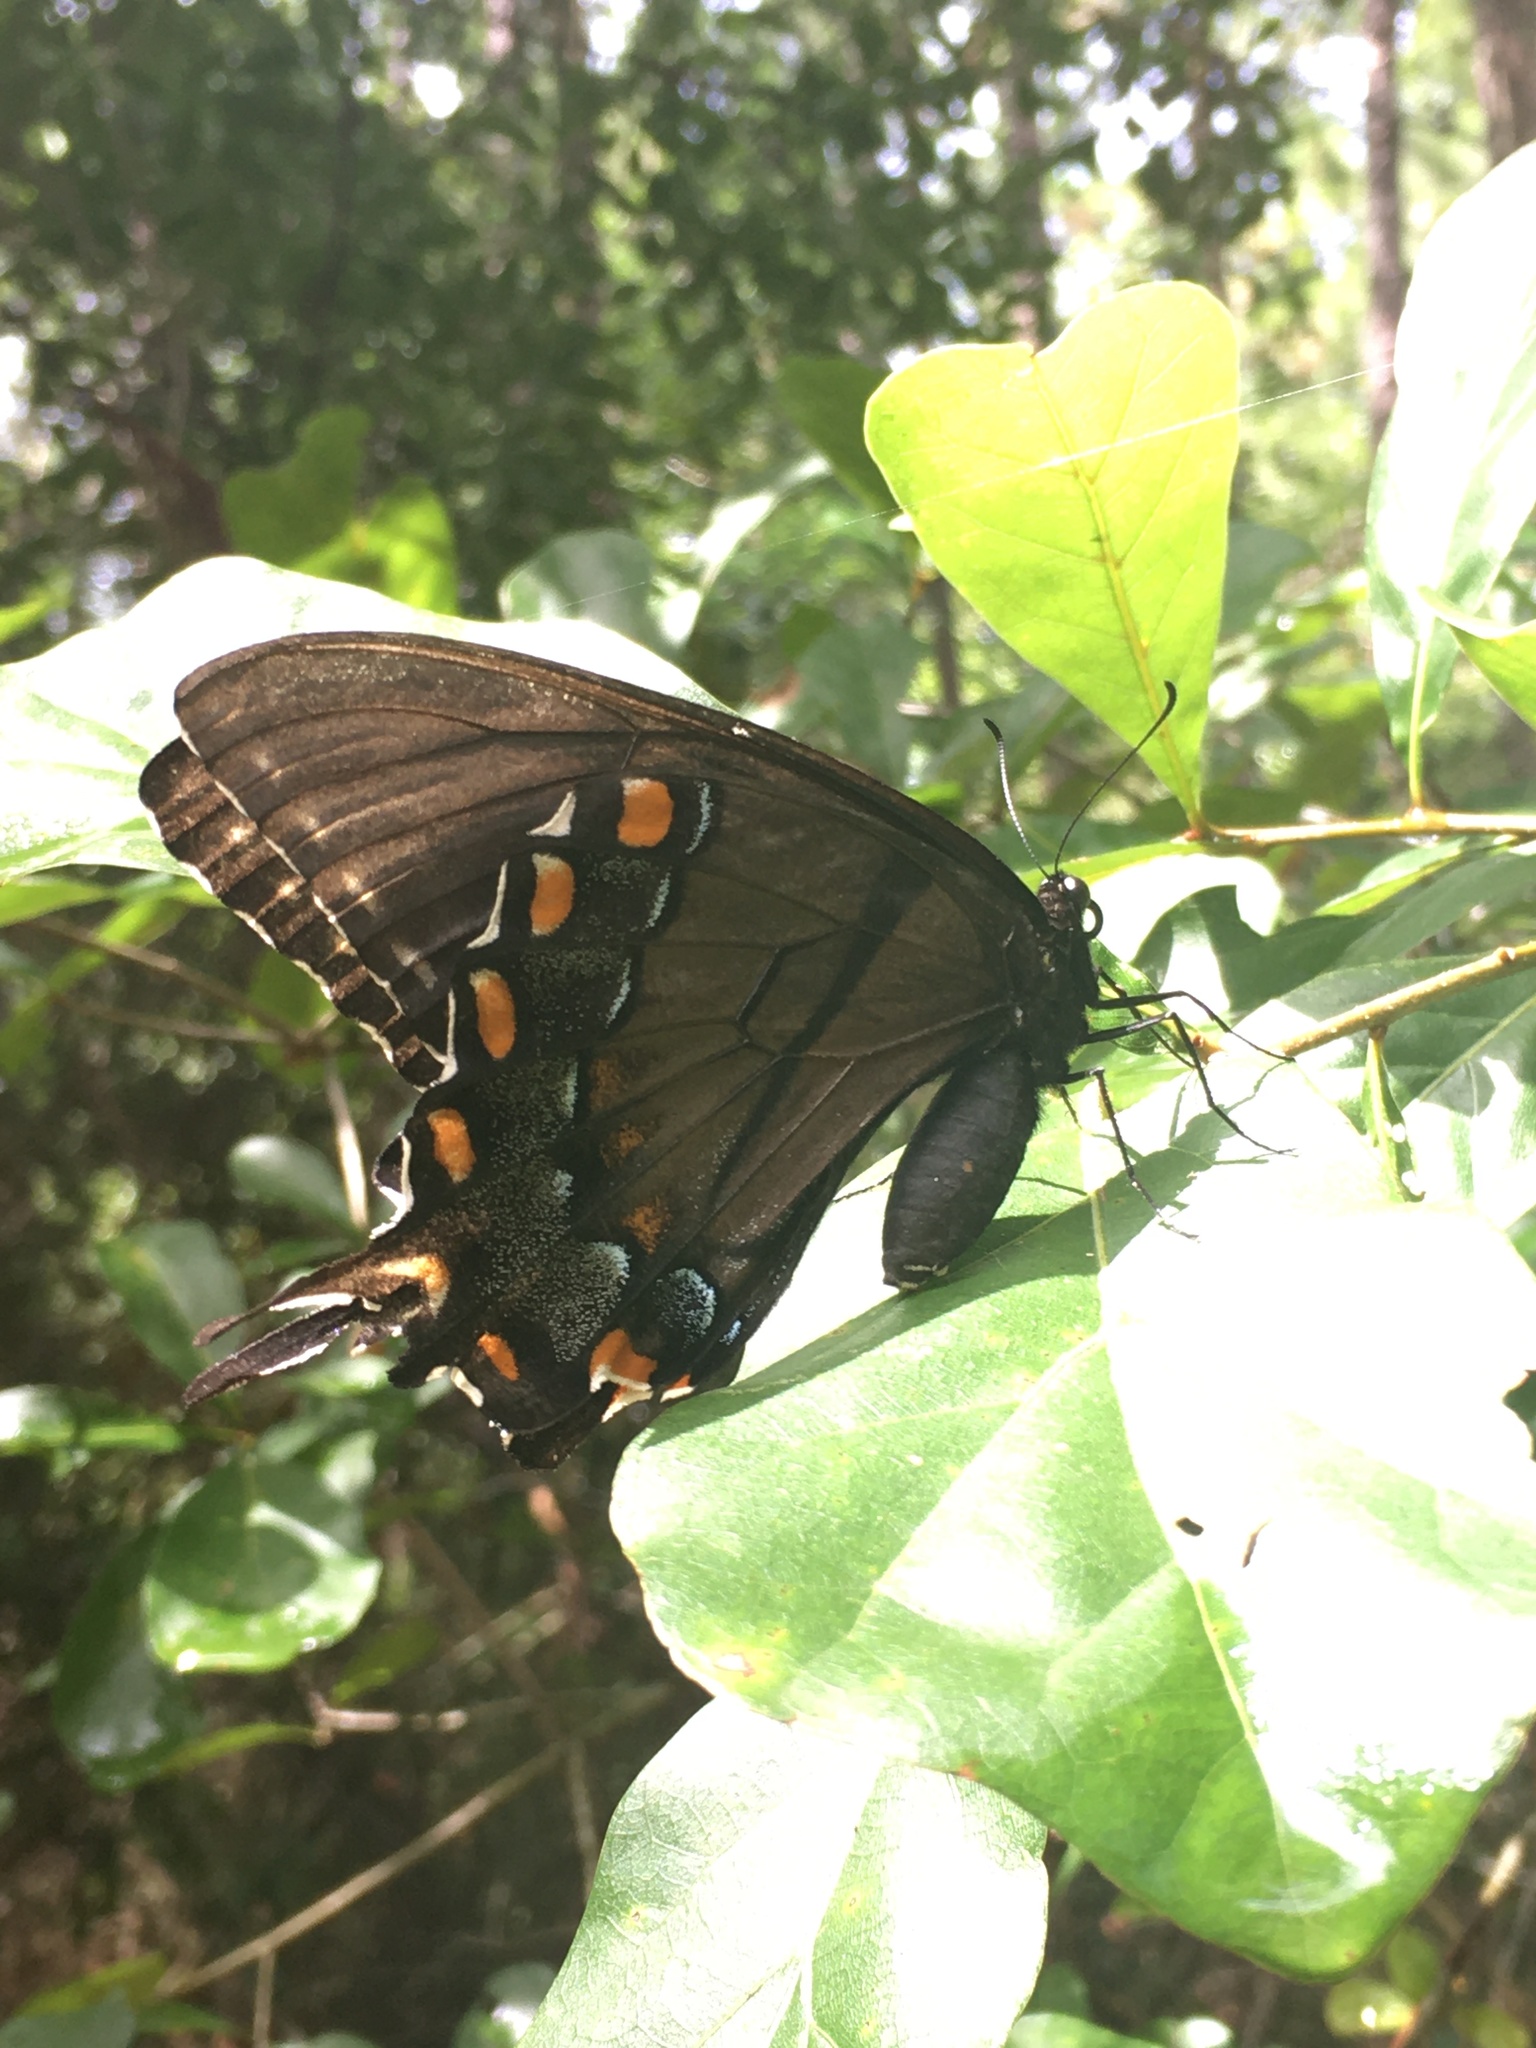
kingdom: Animalia
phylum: Arthropoda
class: Insecta
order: Lepidoptera
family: Papilionidae
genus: Papilio
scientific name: Papilio glaucus
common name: Tiger swallowtail
